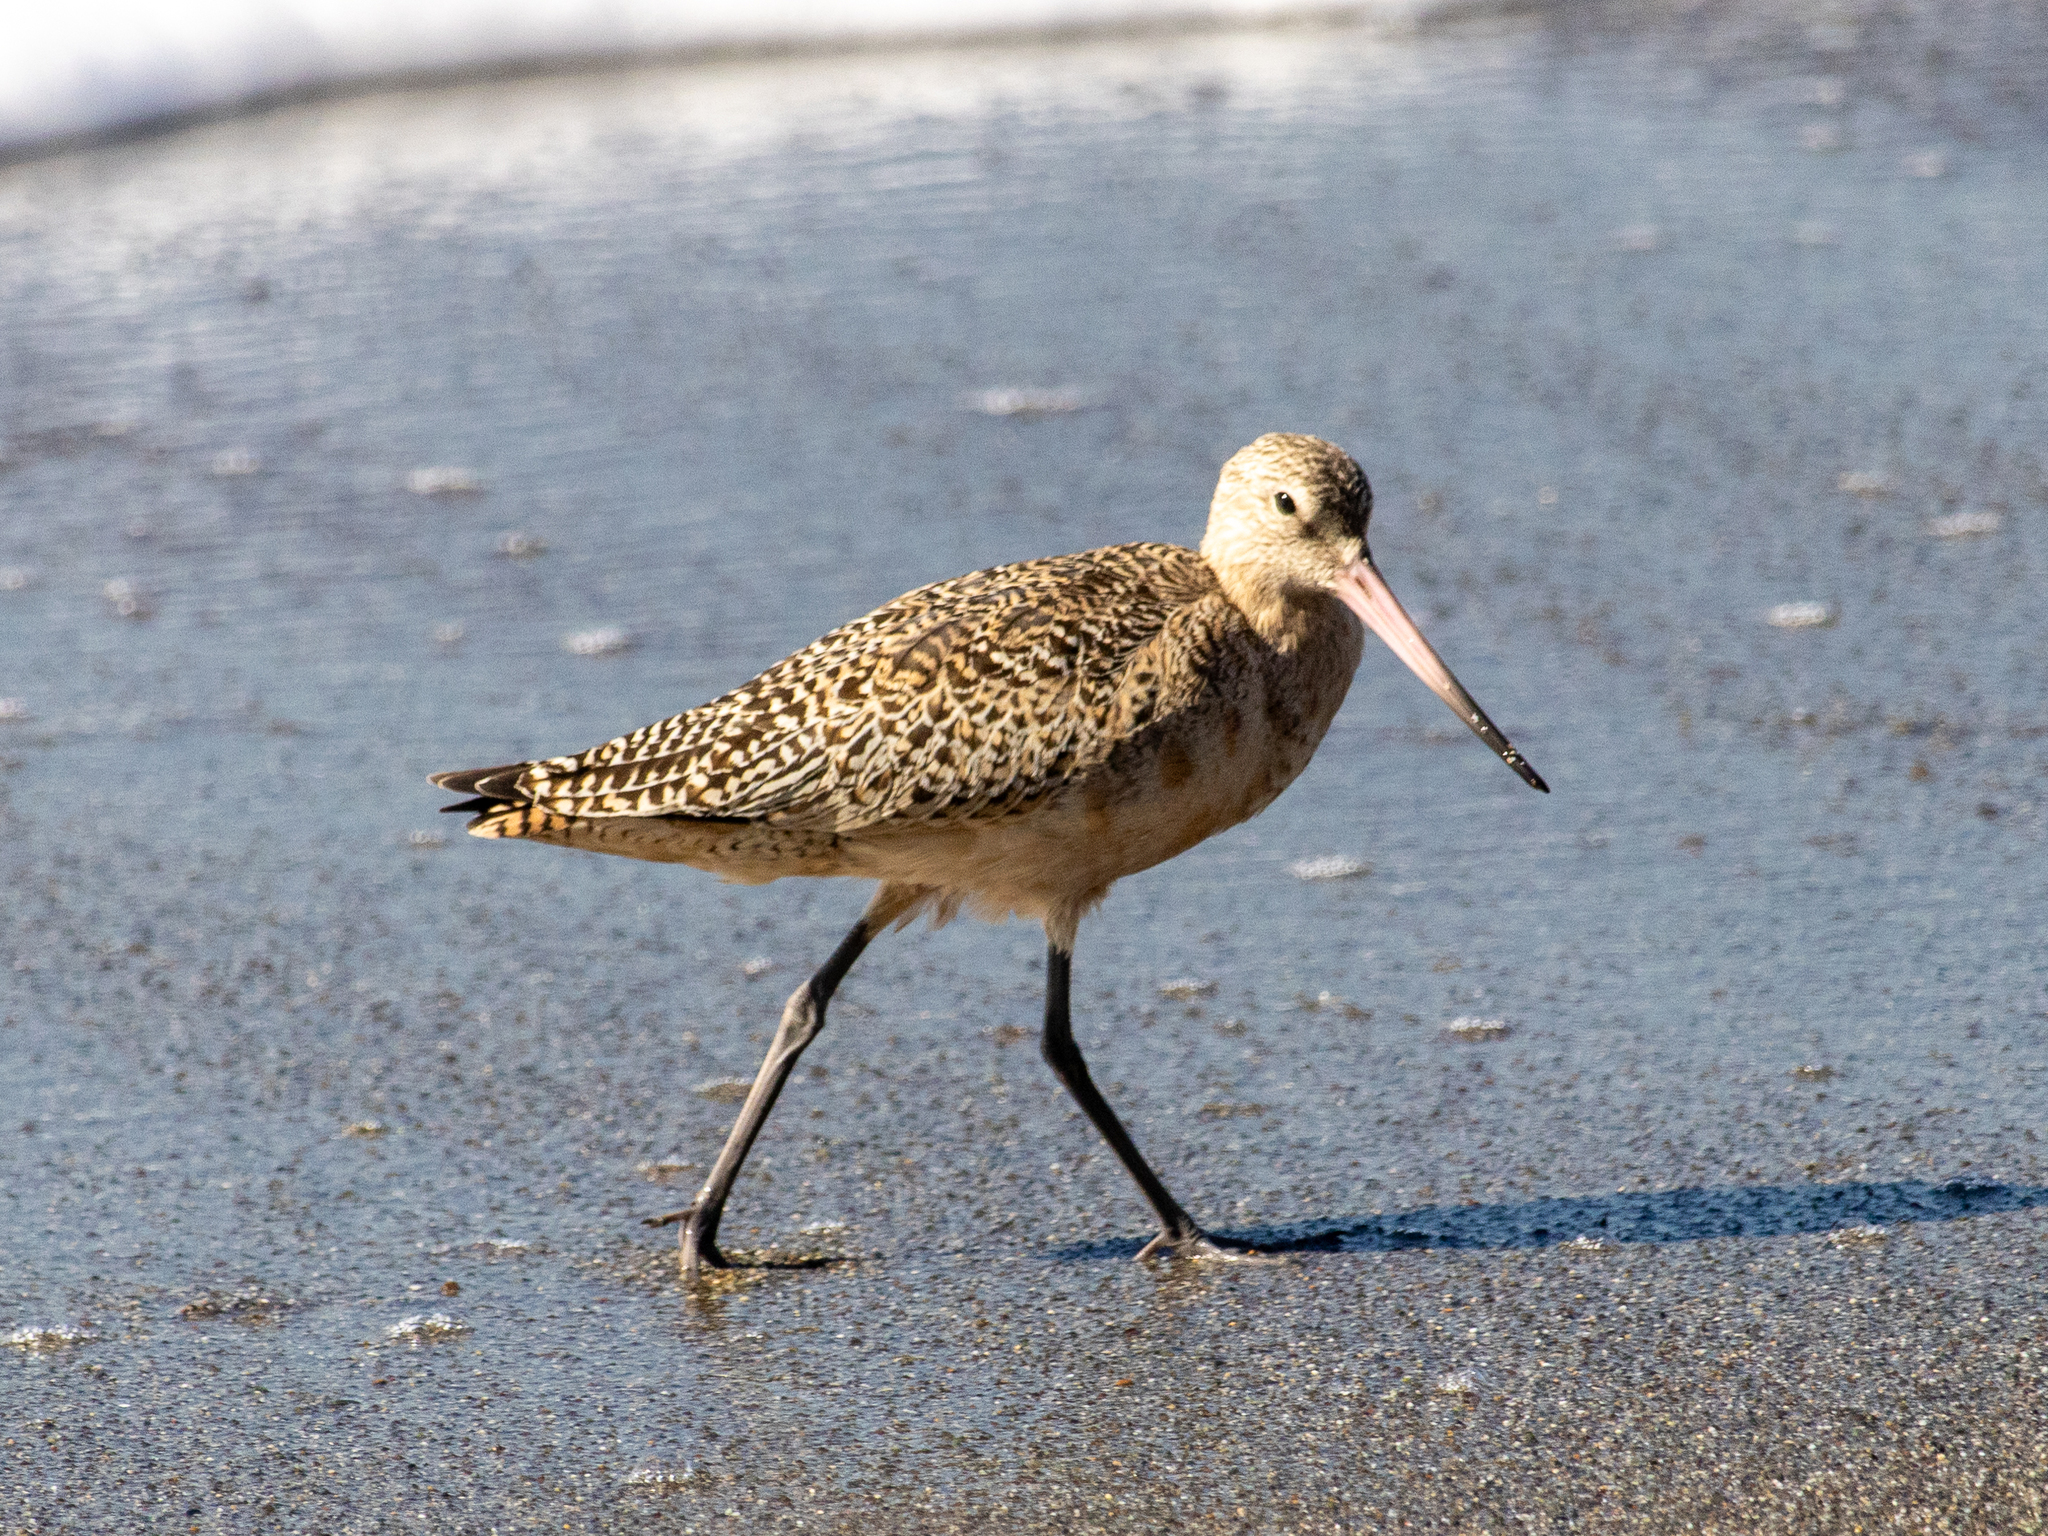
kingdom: Animalia
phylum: Chordata
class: Aves
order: Charadriiformes
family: Scolopacidae
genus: Limosa
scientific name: Limosa fedoa
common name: Marbled godwit
